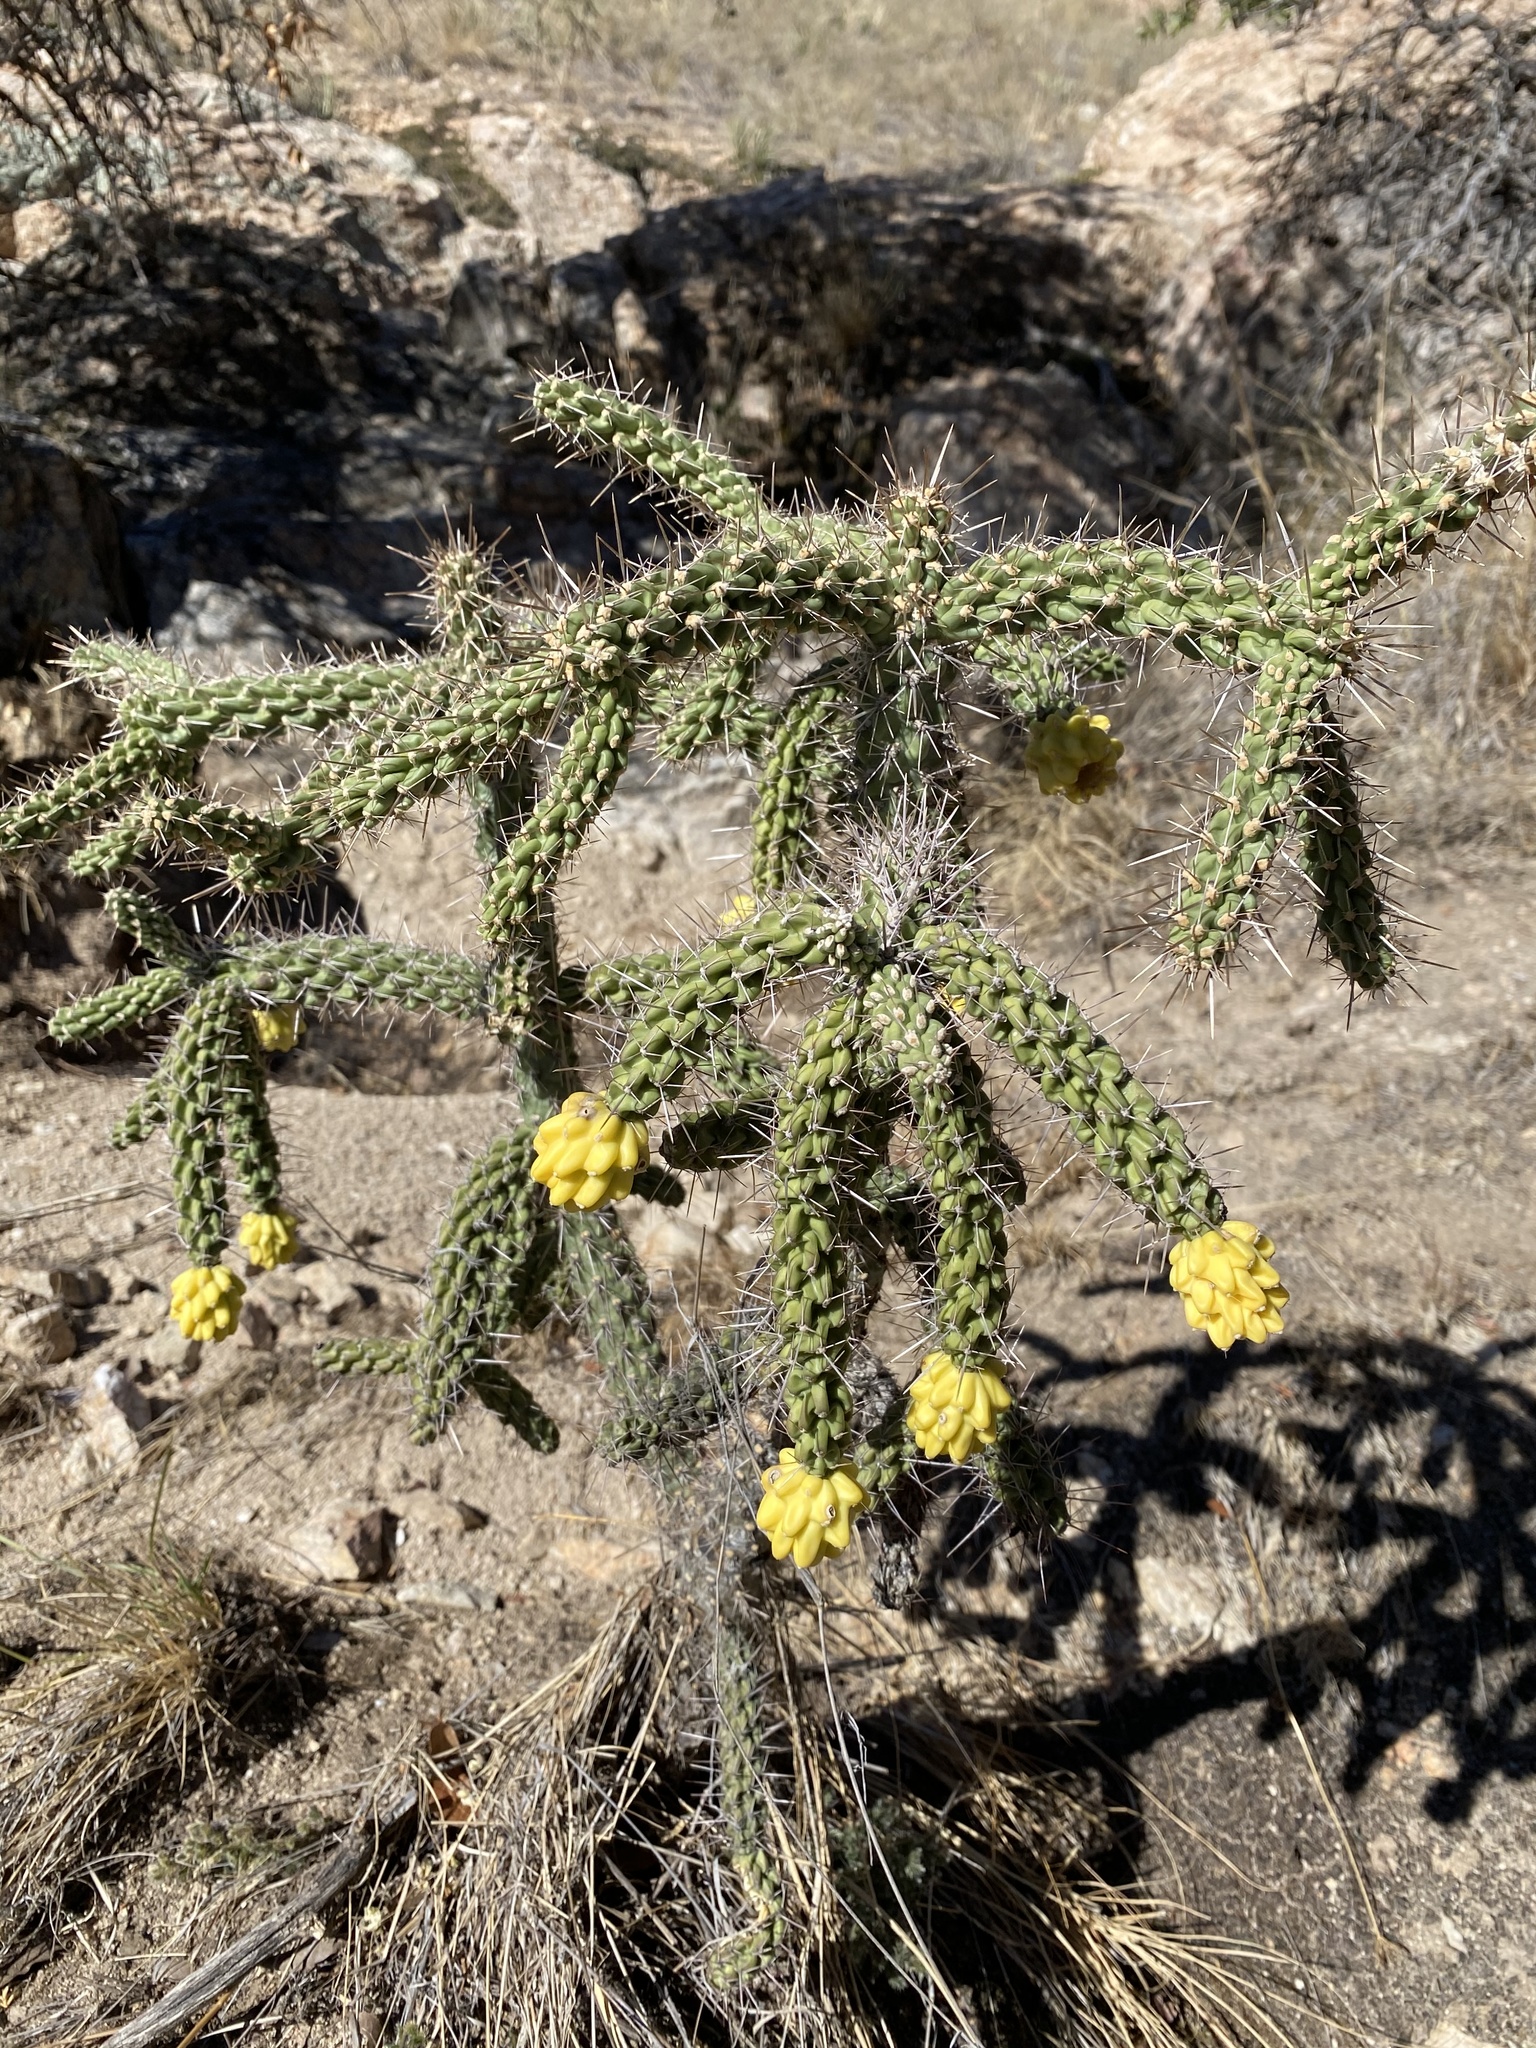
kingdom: Plantae
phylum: Tracheophyta
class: Magnoliopsida
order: Caryophyllales
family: Cactaceae
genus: Cylindropuntia
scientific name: Cylindropuntia imbricata
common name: Candelabrum cactus
